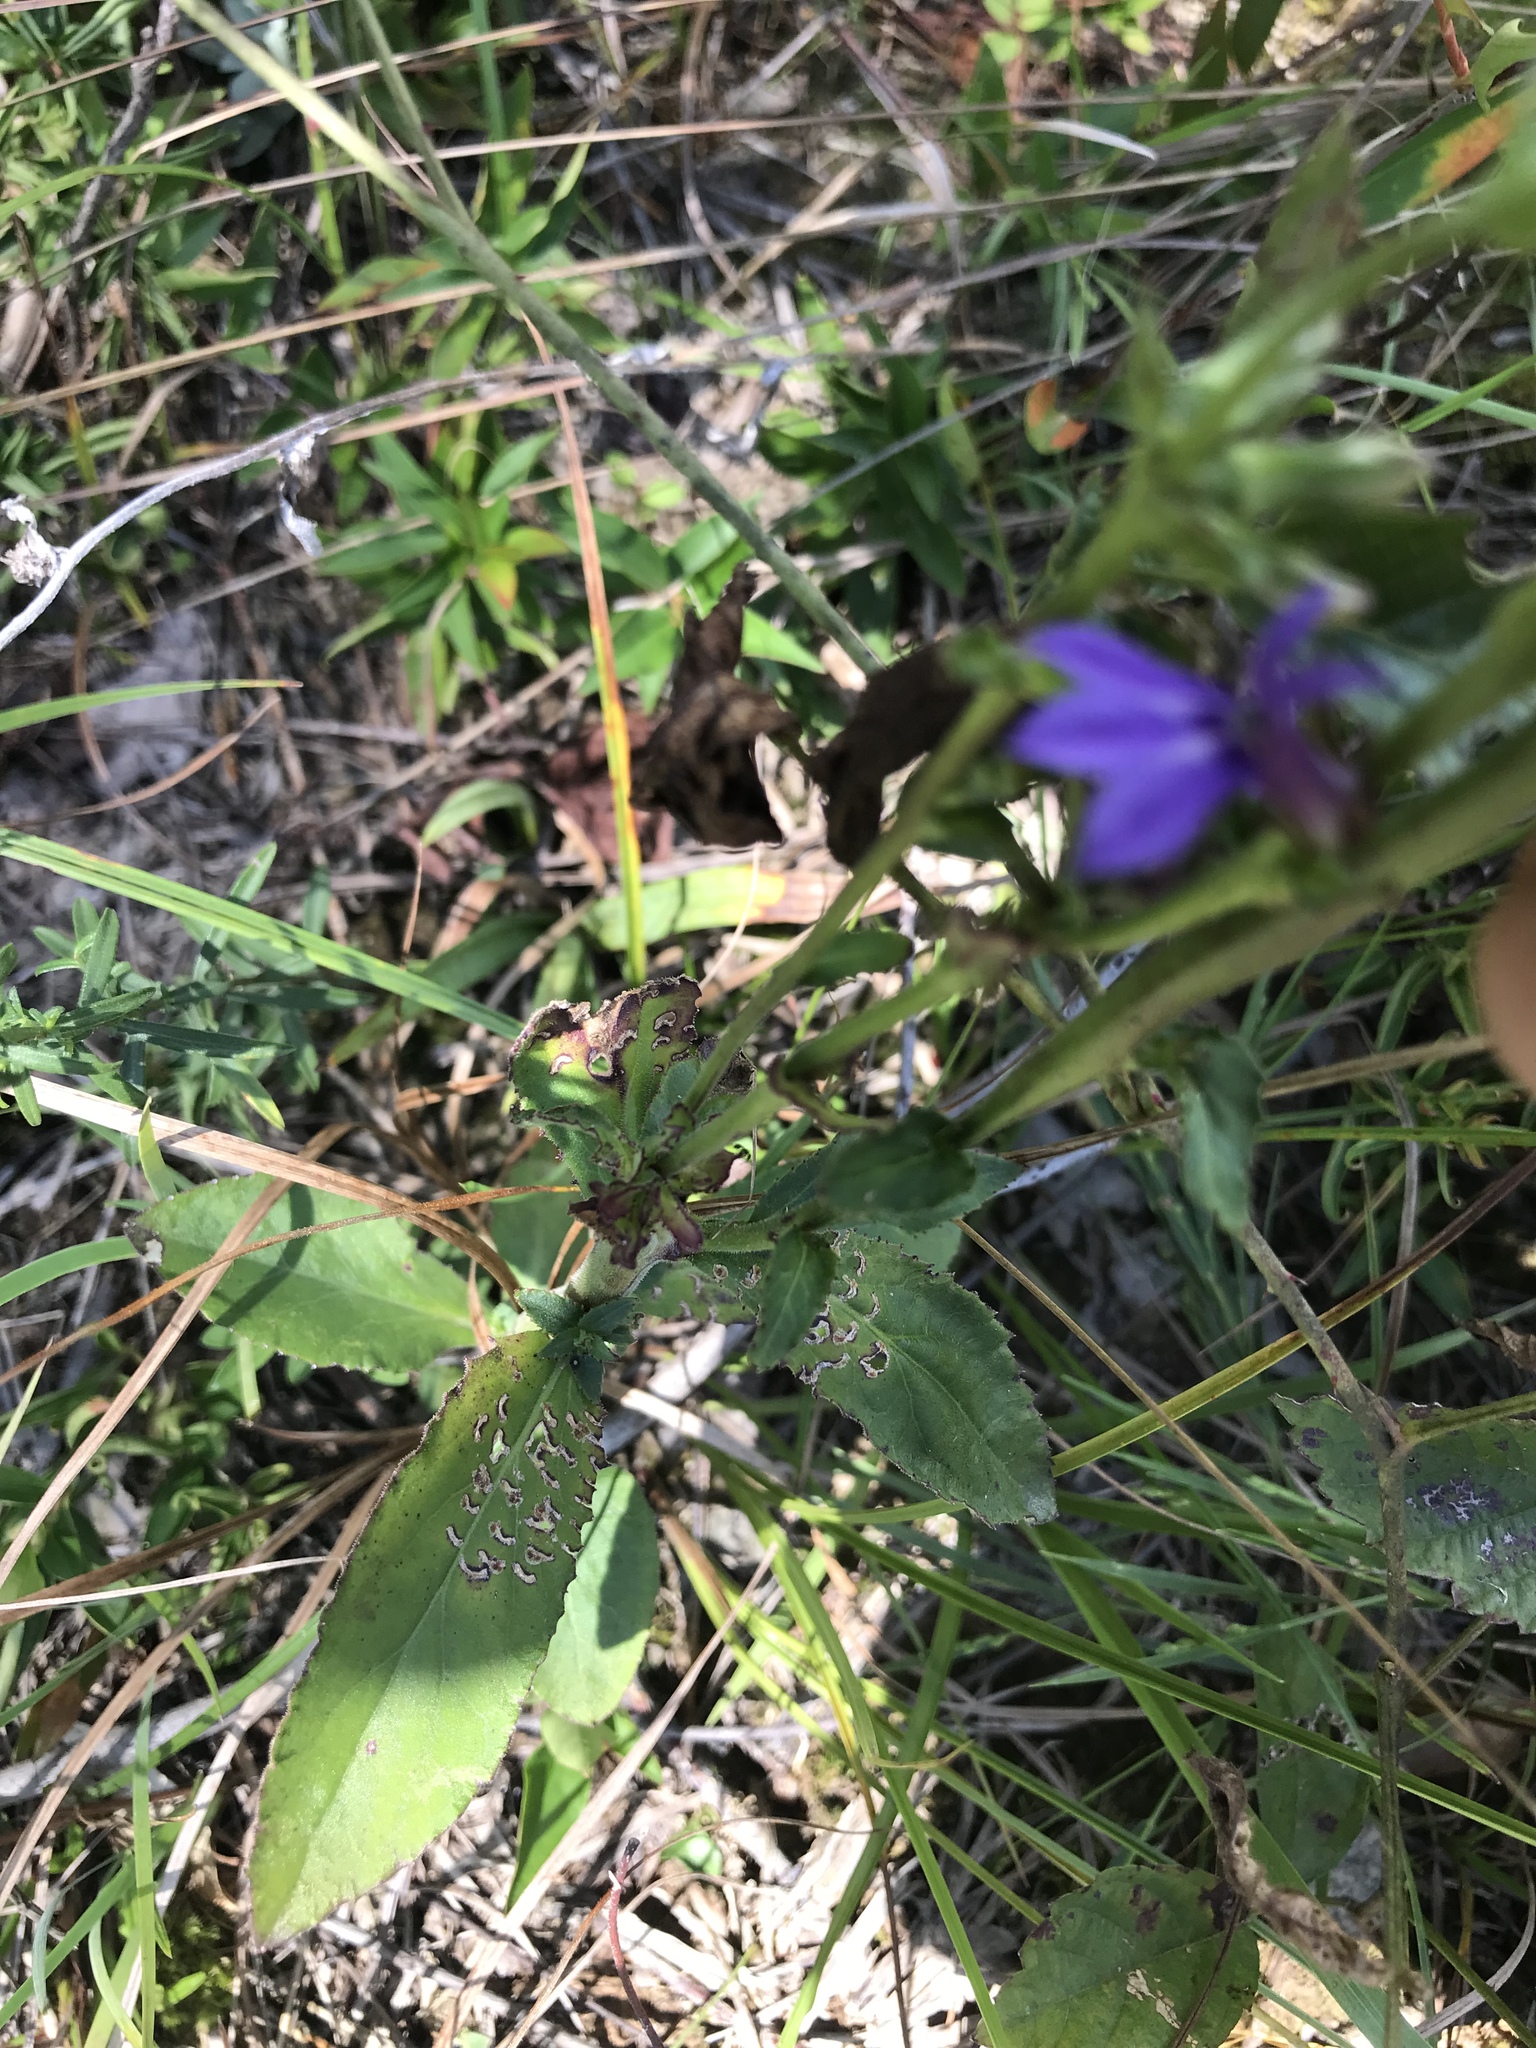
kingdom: Plantae
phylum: Tracheophyta
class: Magnoliopsida
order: Asterales
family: Campanulaceae
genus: Lobelia
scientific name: Lobelia puberula
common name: Purple dewdrop
